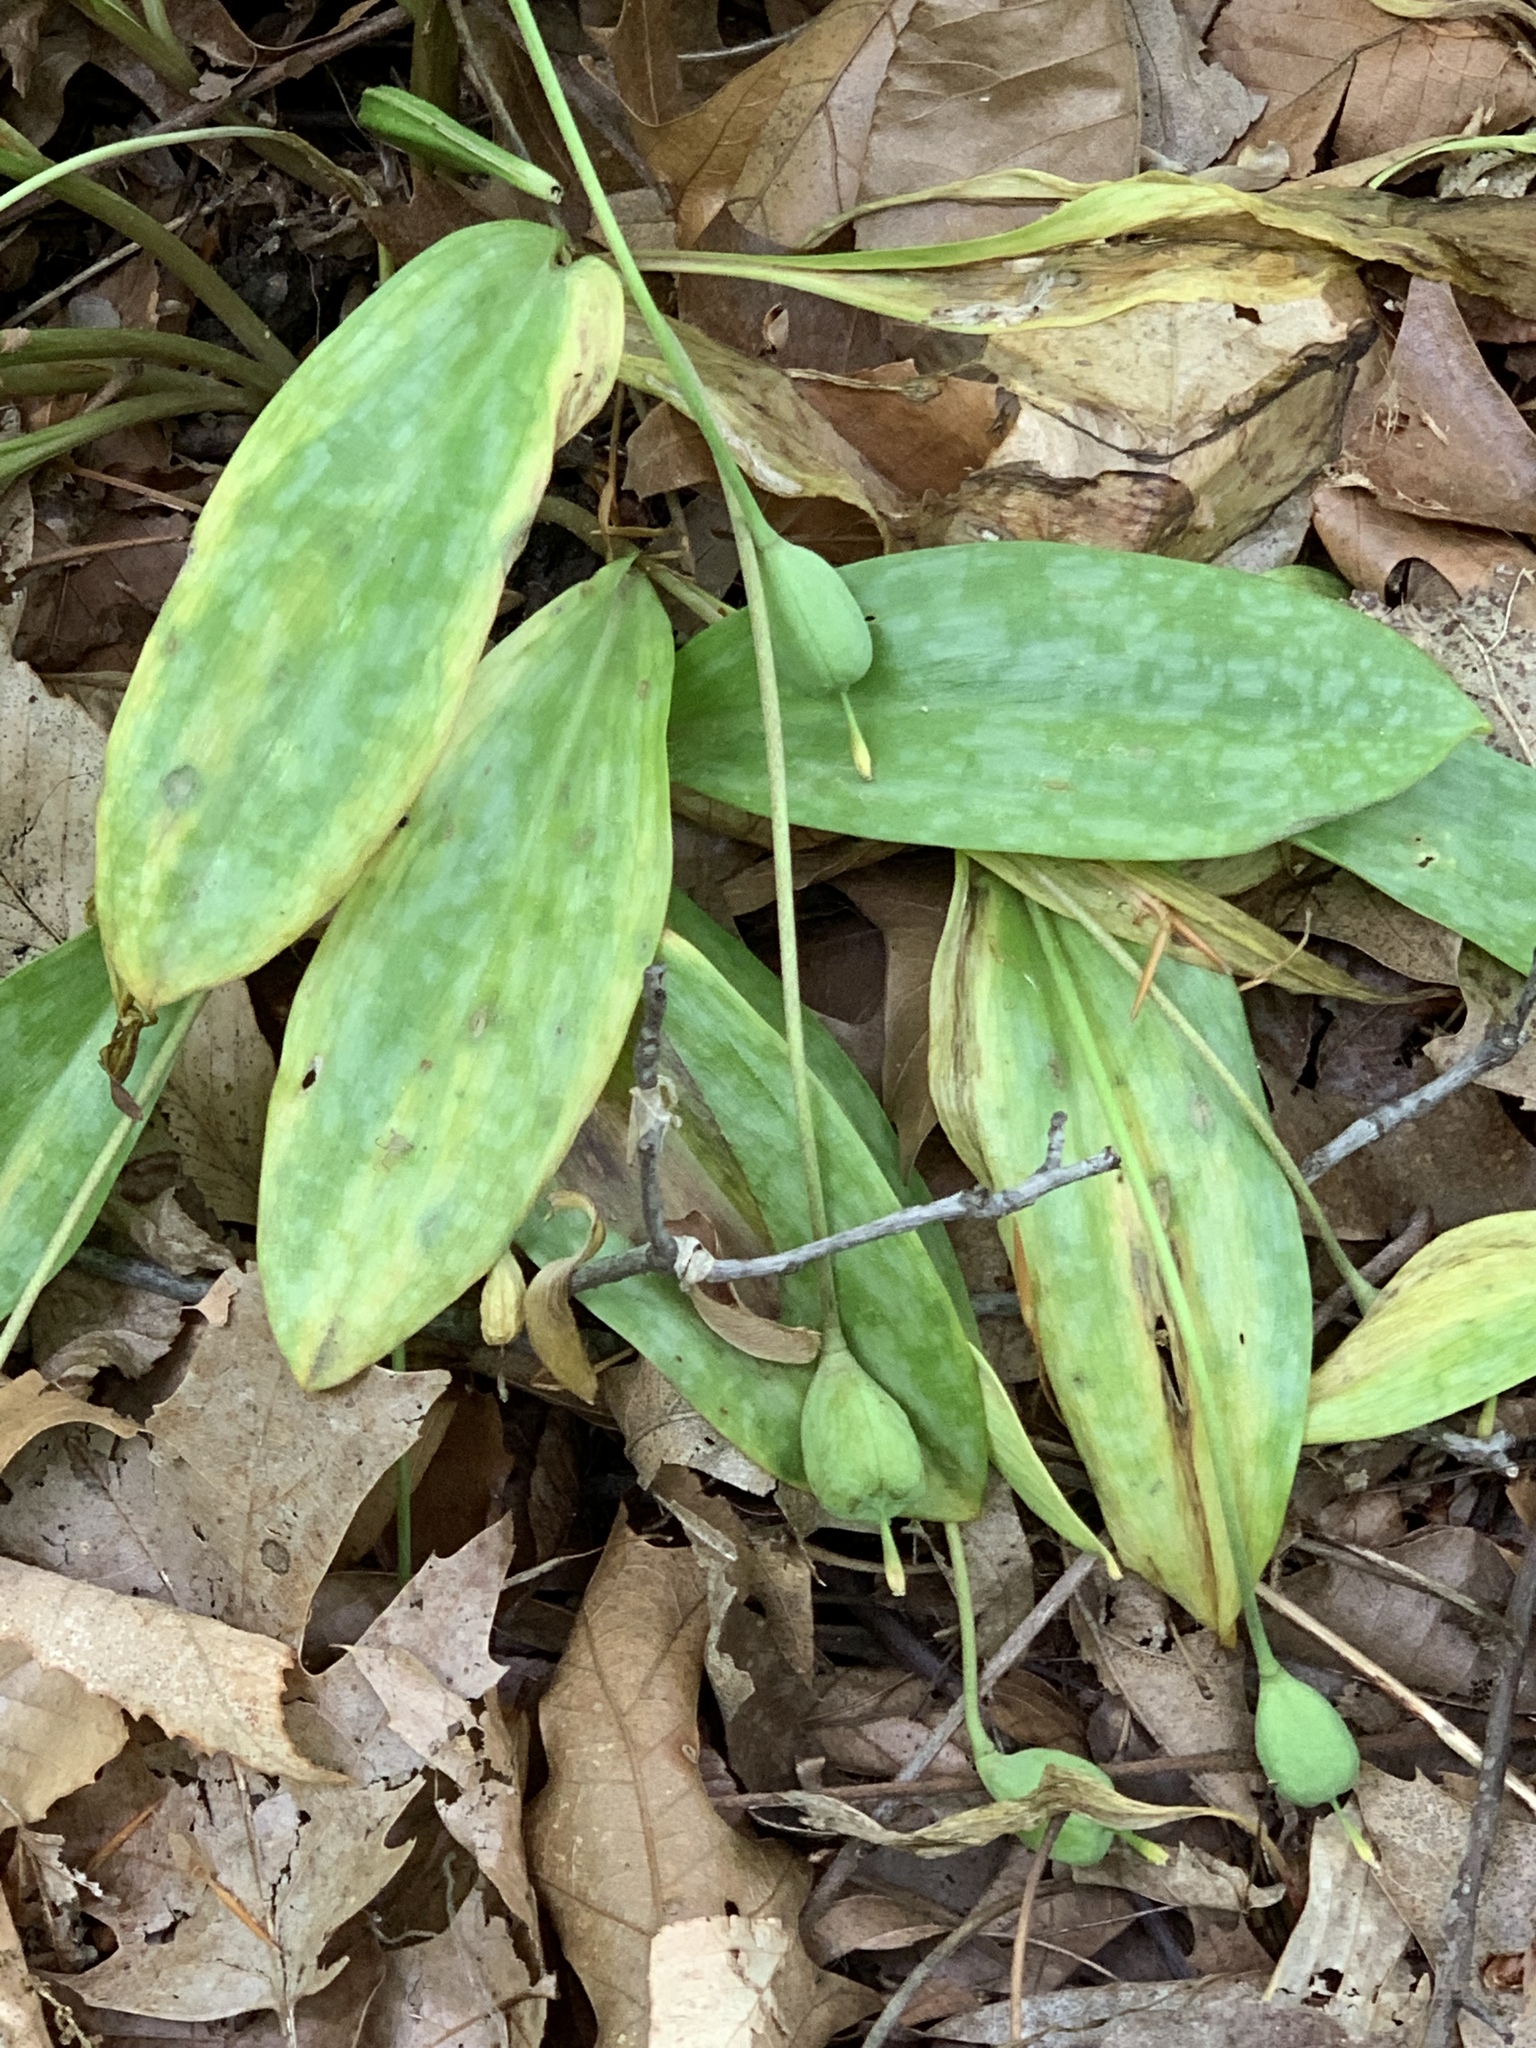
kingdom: Plantae
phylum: Tracheophyta
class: Liliopsida
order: Liliales
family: Liliaceae
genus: Erythronium
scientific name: Erythronium americanum
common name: Yellow adder's-tongue
